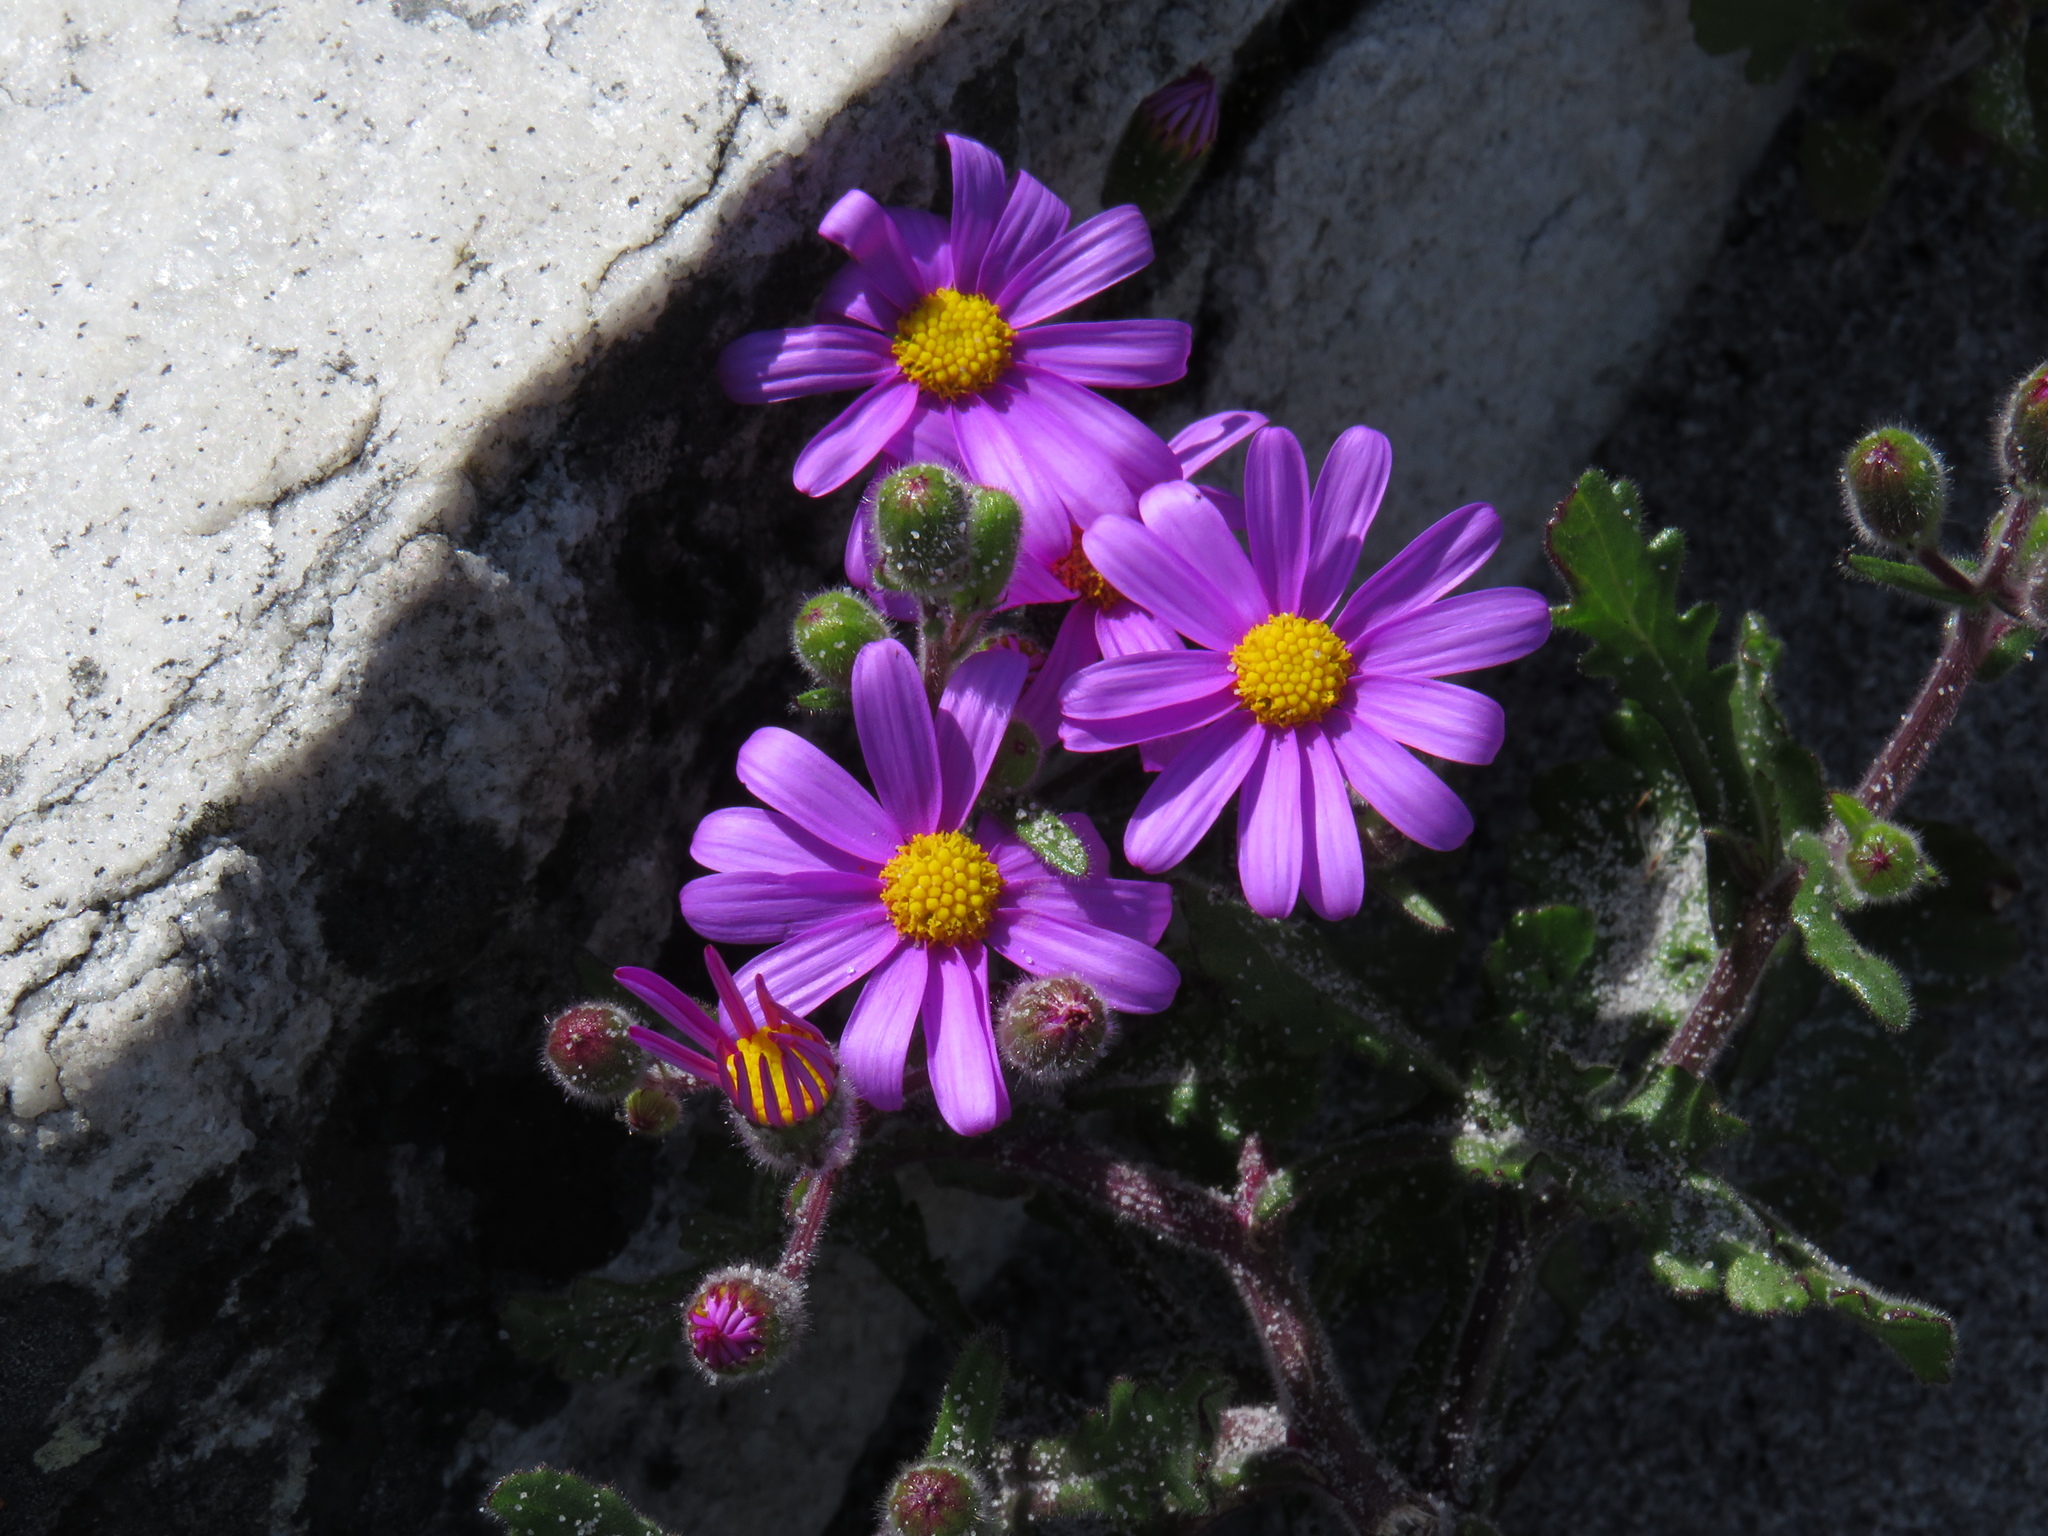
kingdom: Plantae
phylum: Tracheophyta
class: Magnoliopsida
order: Asterales
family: Asteraceae
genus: Senecio
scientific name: Senecio arenarius
